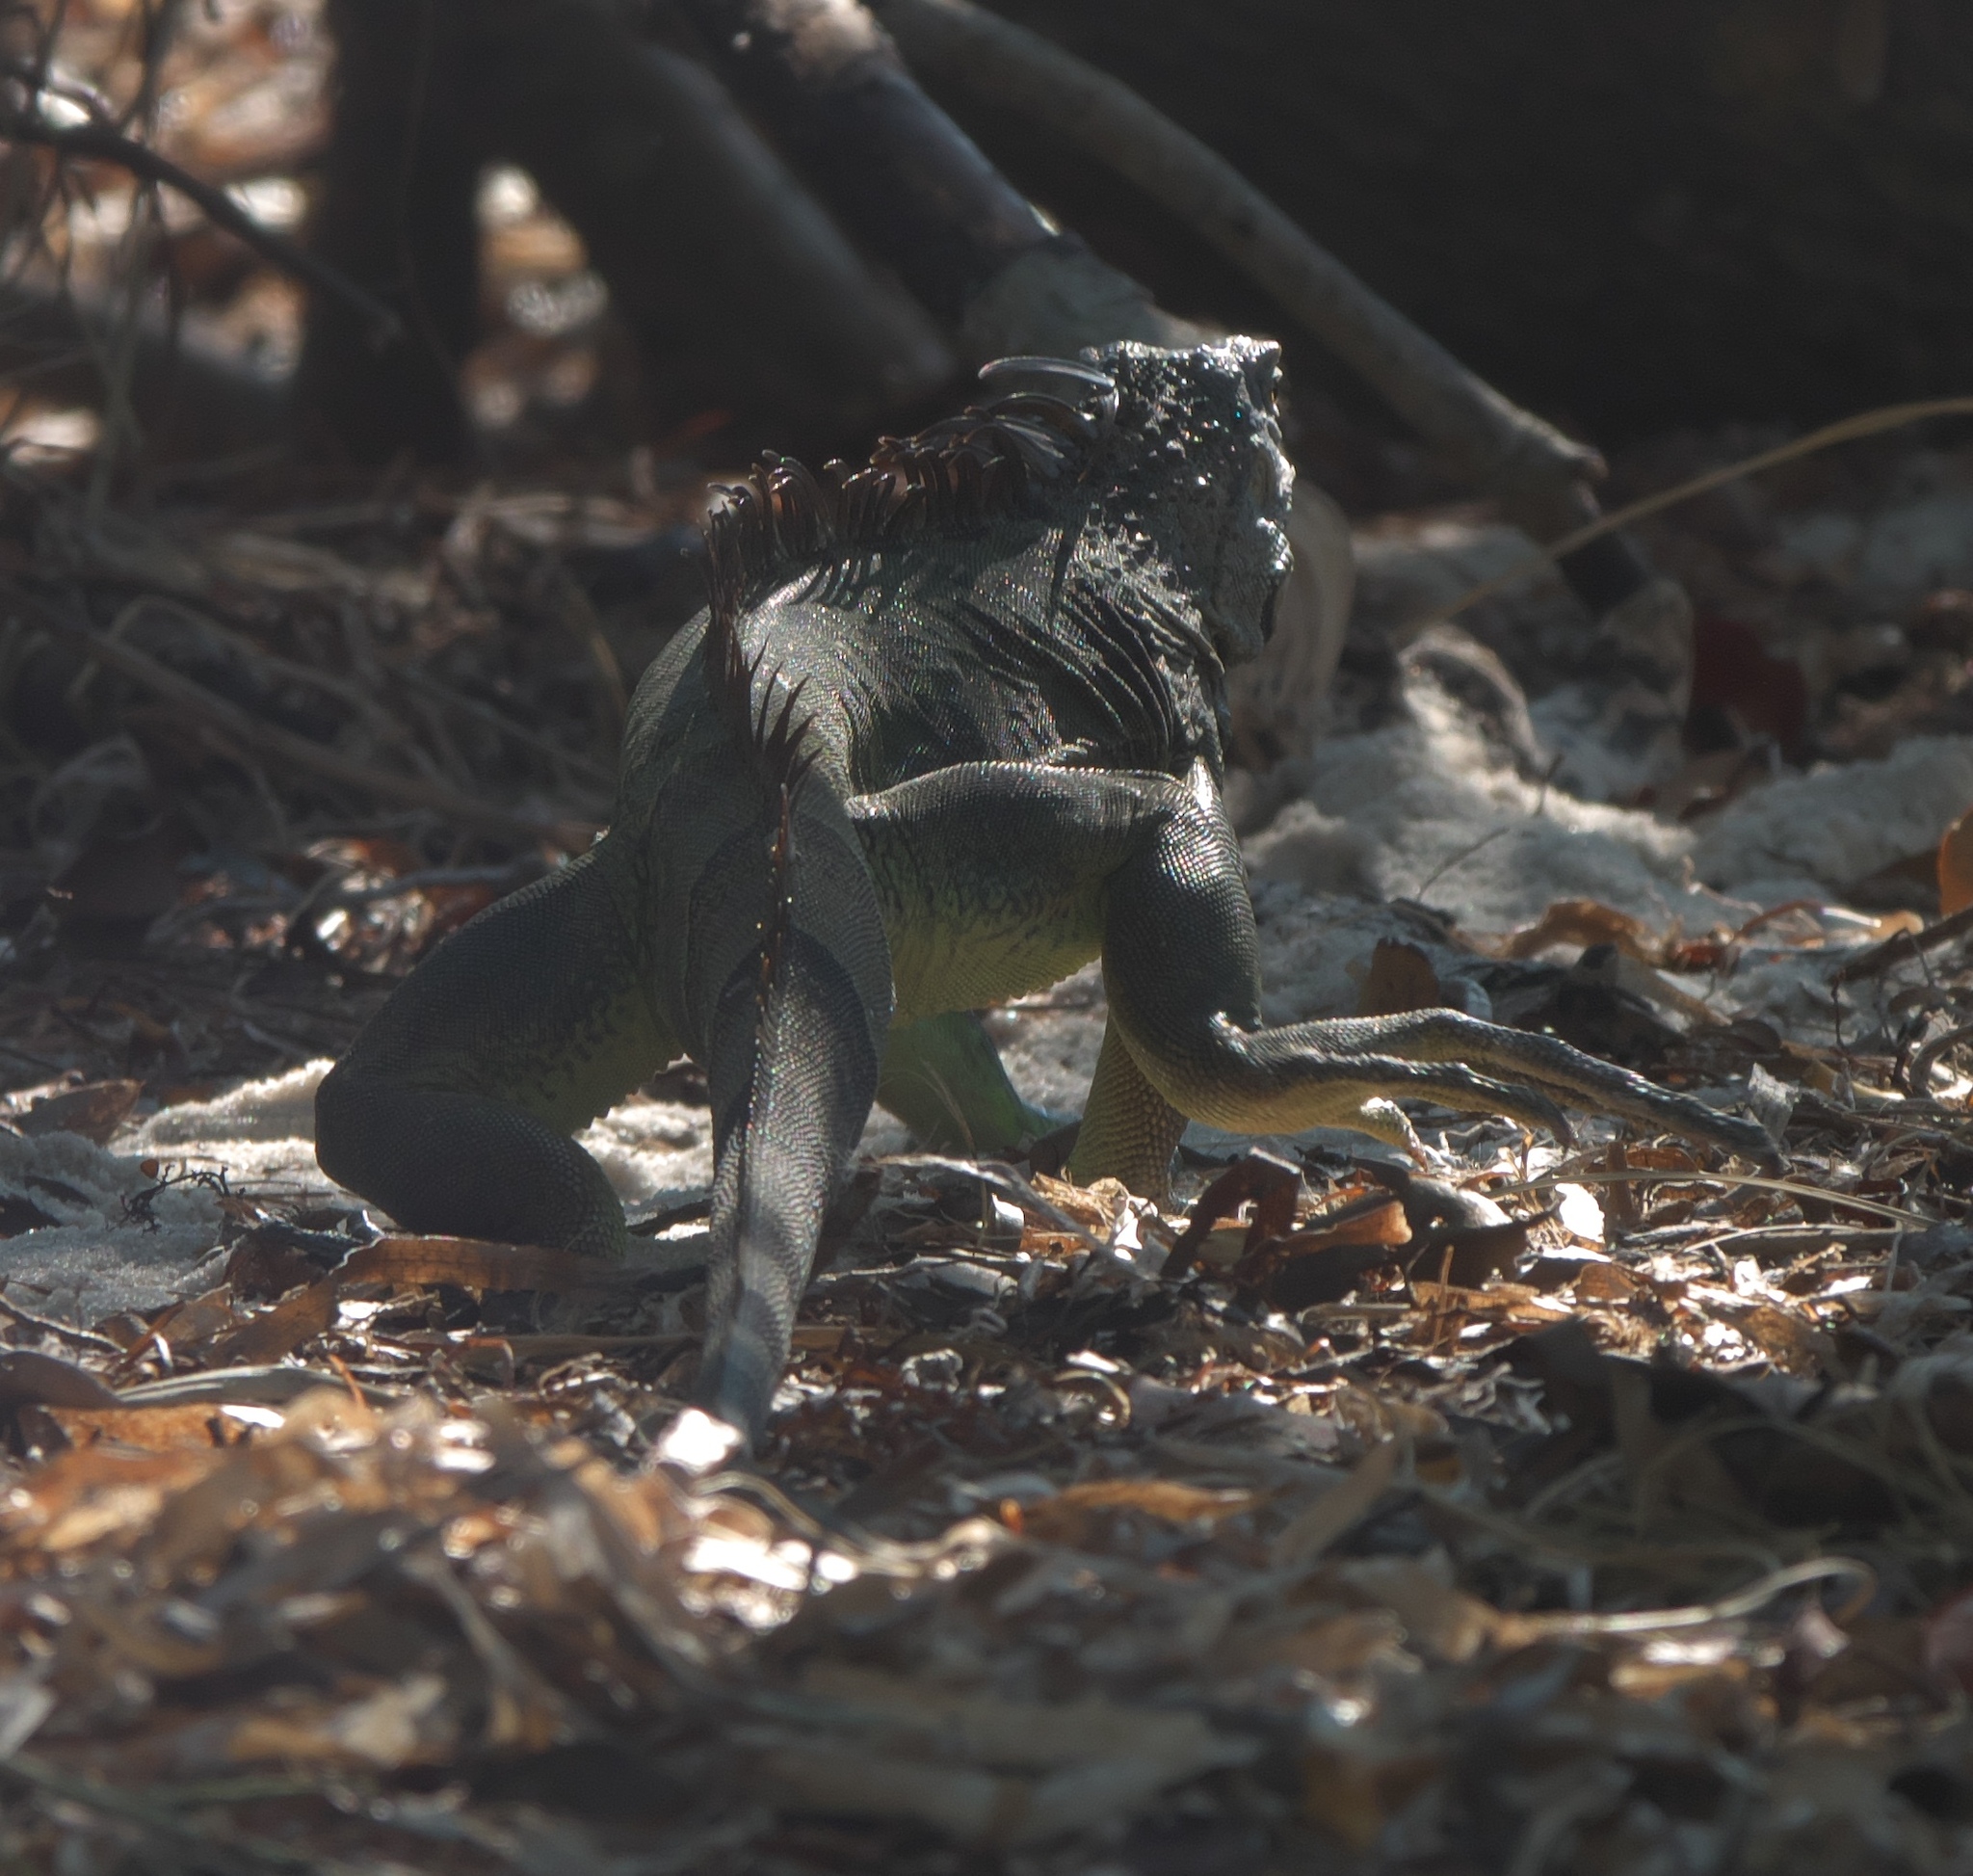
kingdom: Animalia
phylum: Chordata
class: Squamata
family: Iguanidae
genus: Iguana
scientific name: Iguana iguana
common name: Green iguana
